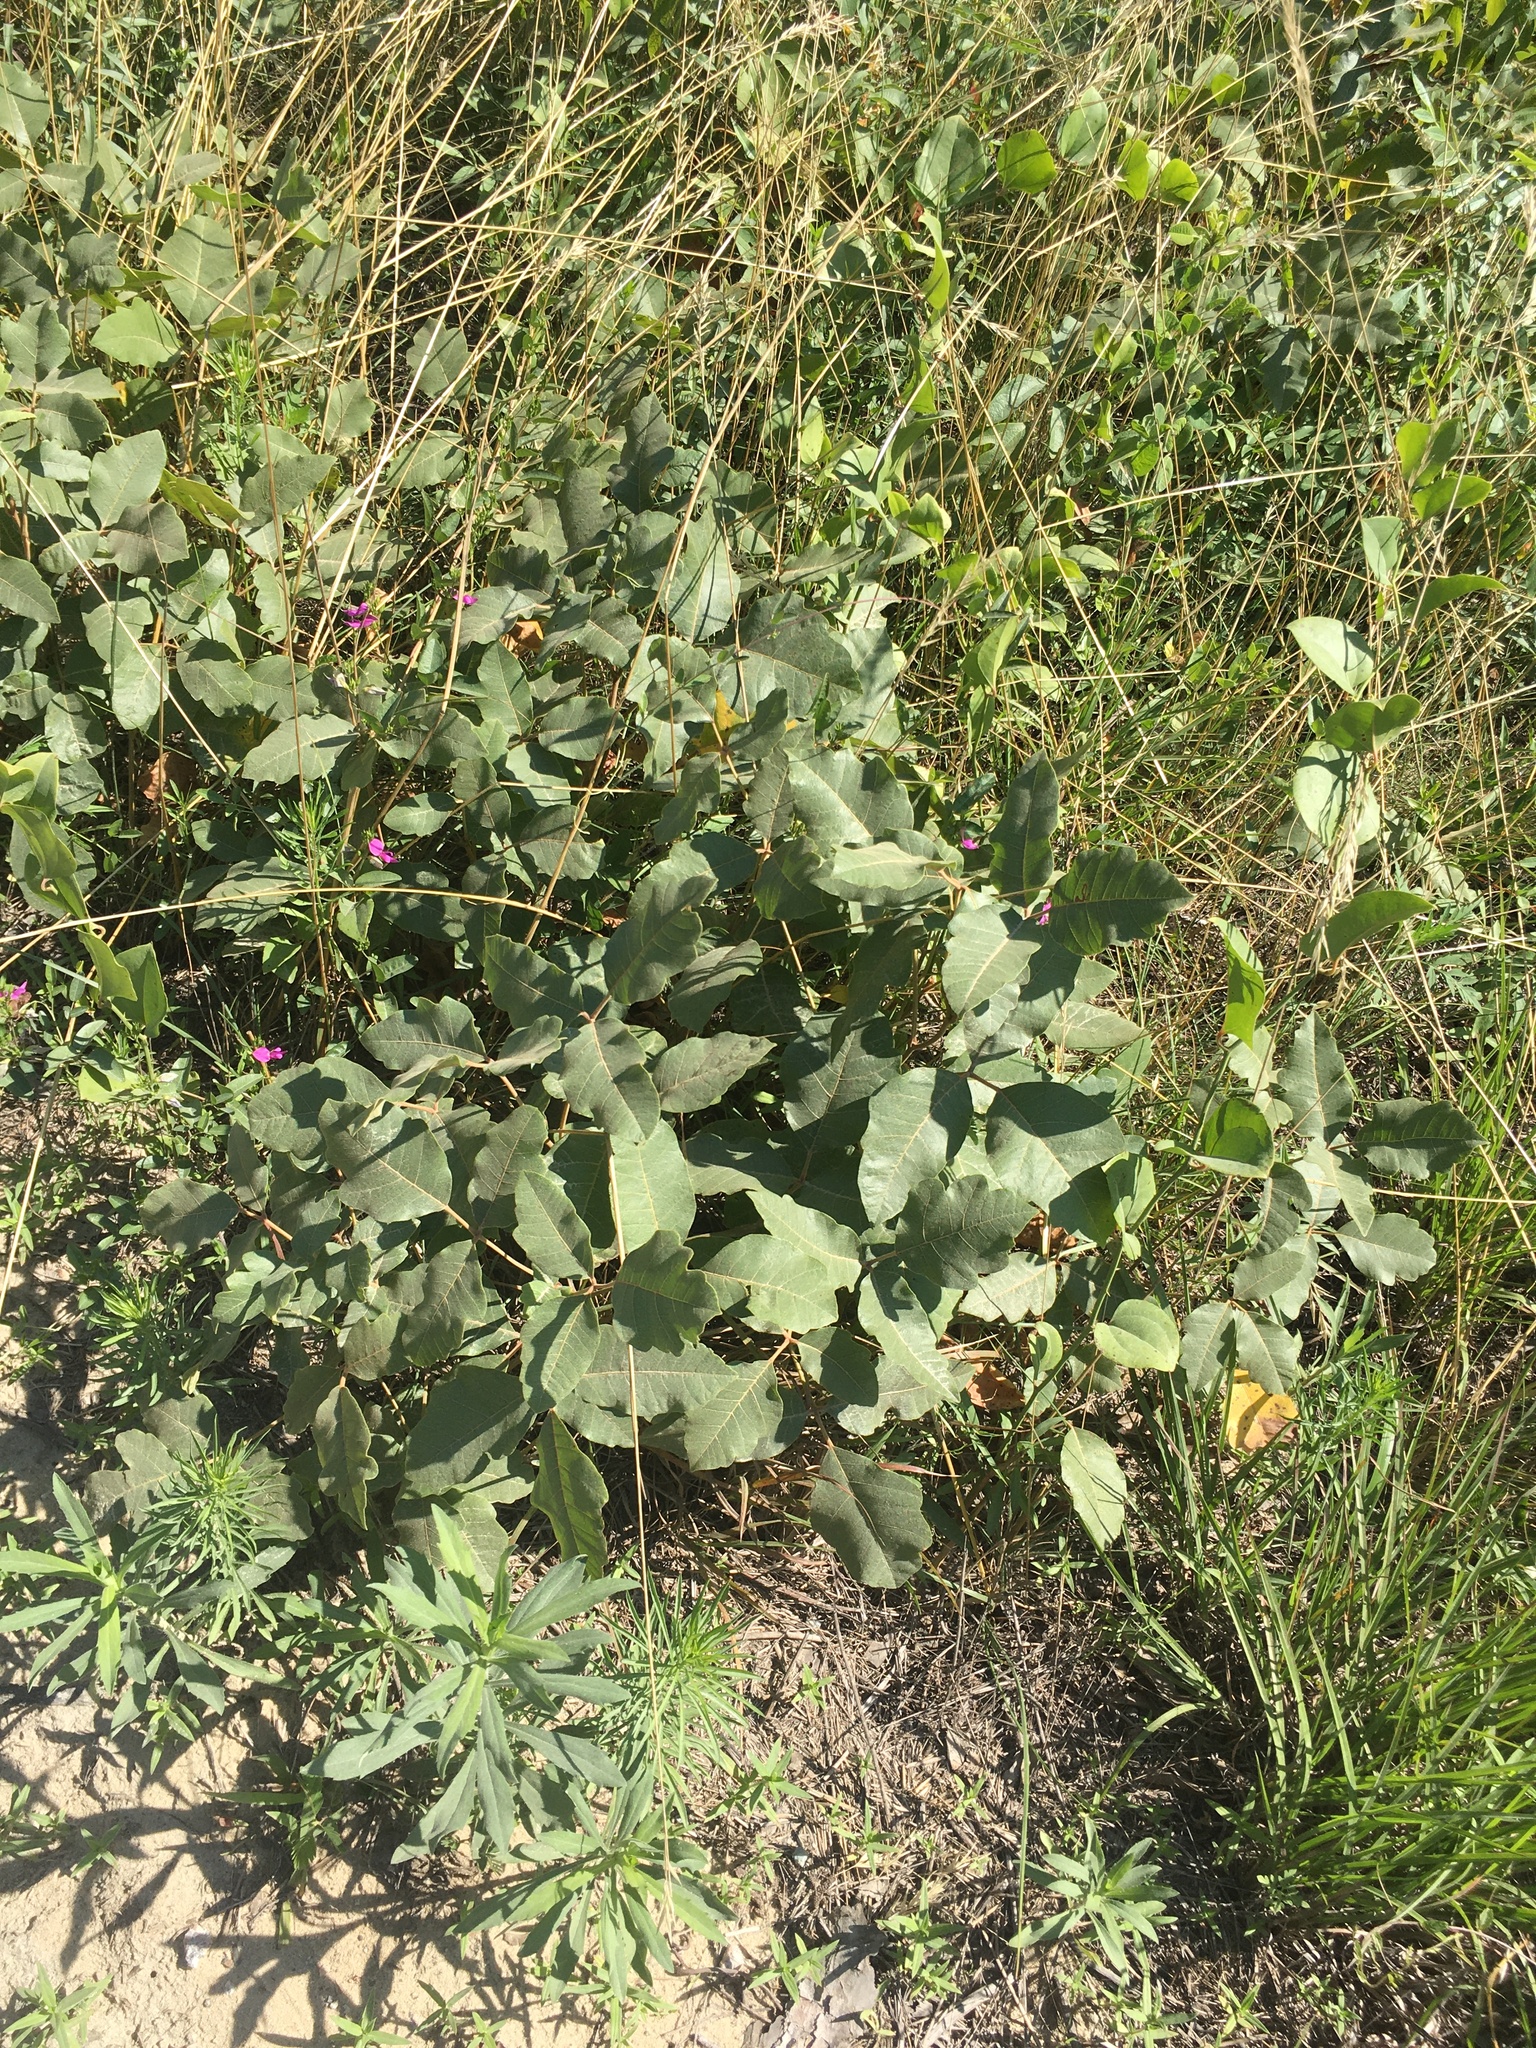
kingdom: Plantae
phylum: Tracheophyta
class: Magnoliopsida
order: Sapindales
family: Anacardiaceae
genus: Toxicodendron
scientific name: Toxicodendron pubescens
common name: Eastern poison-oak
